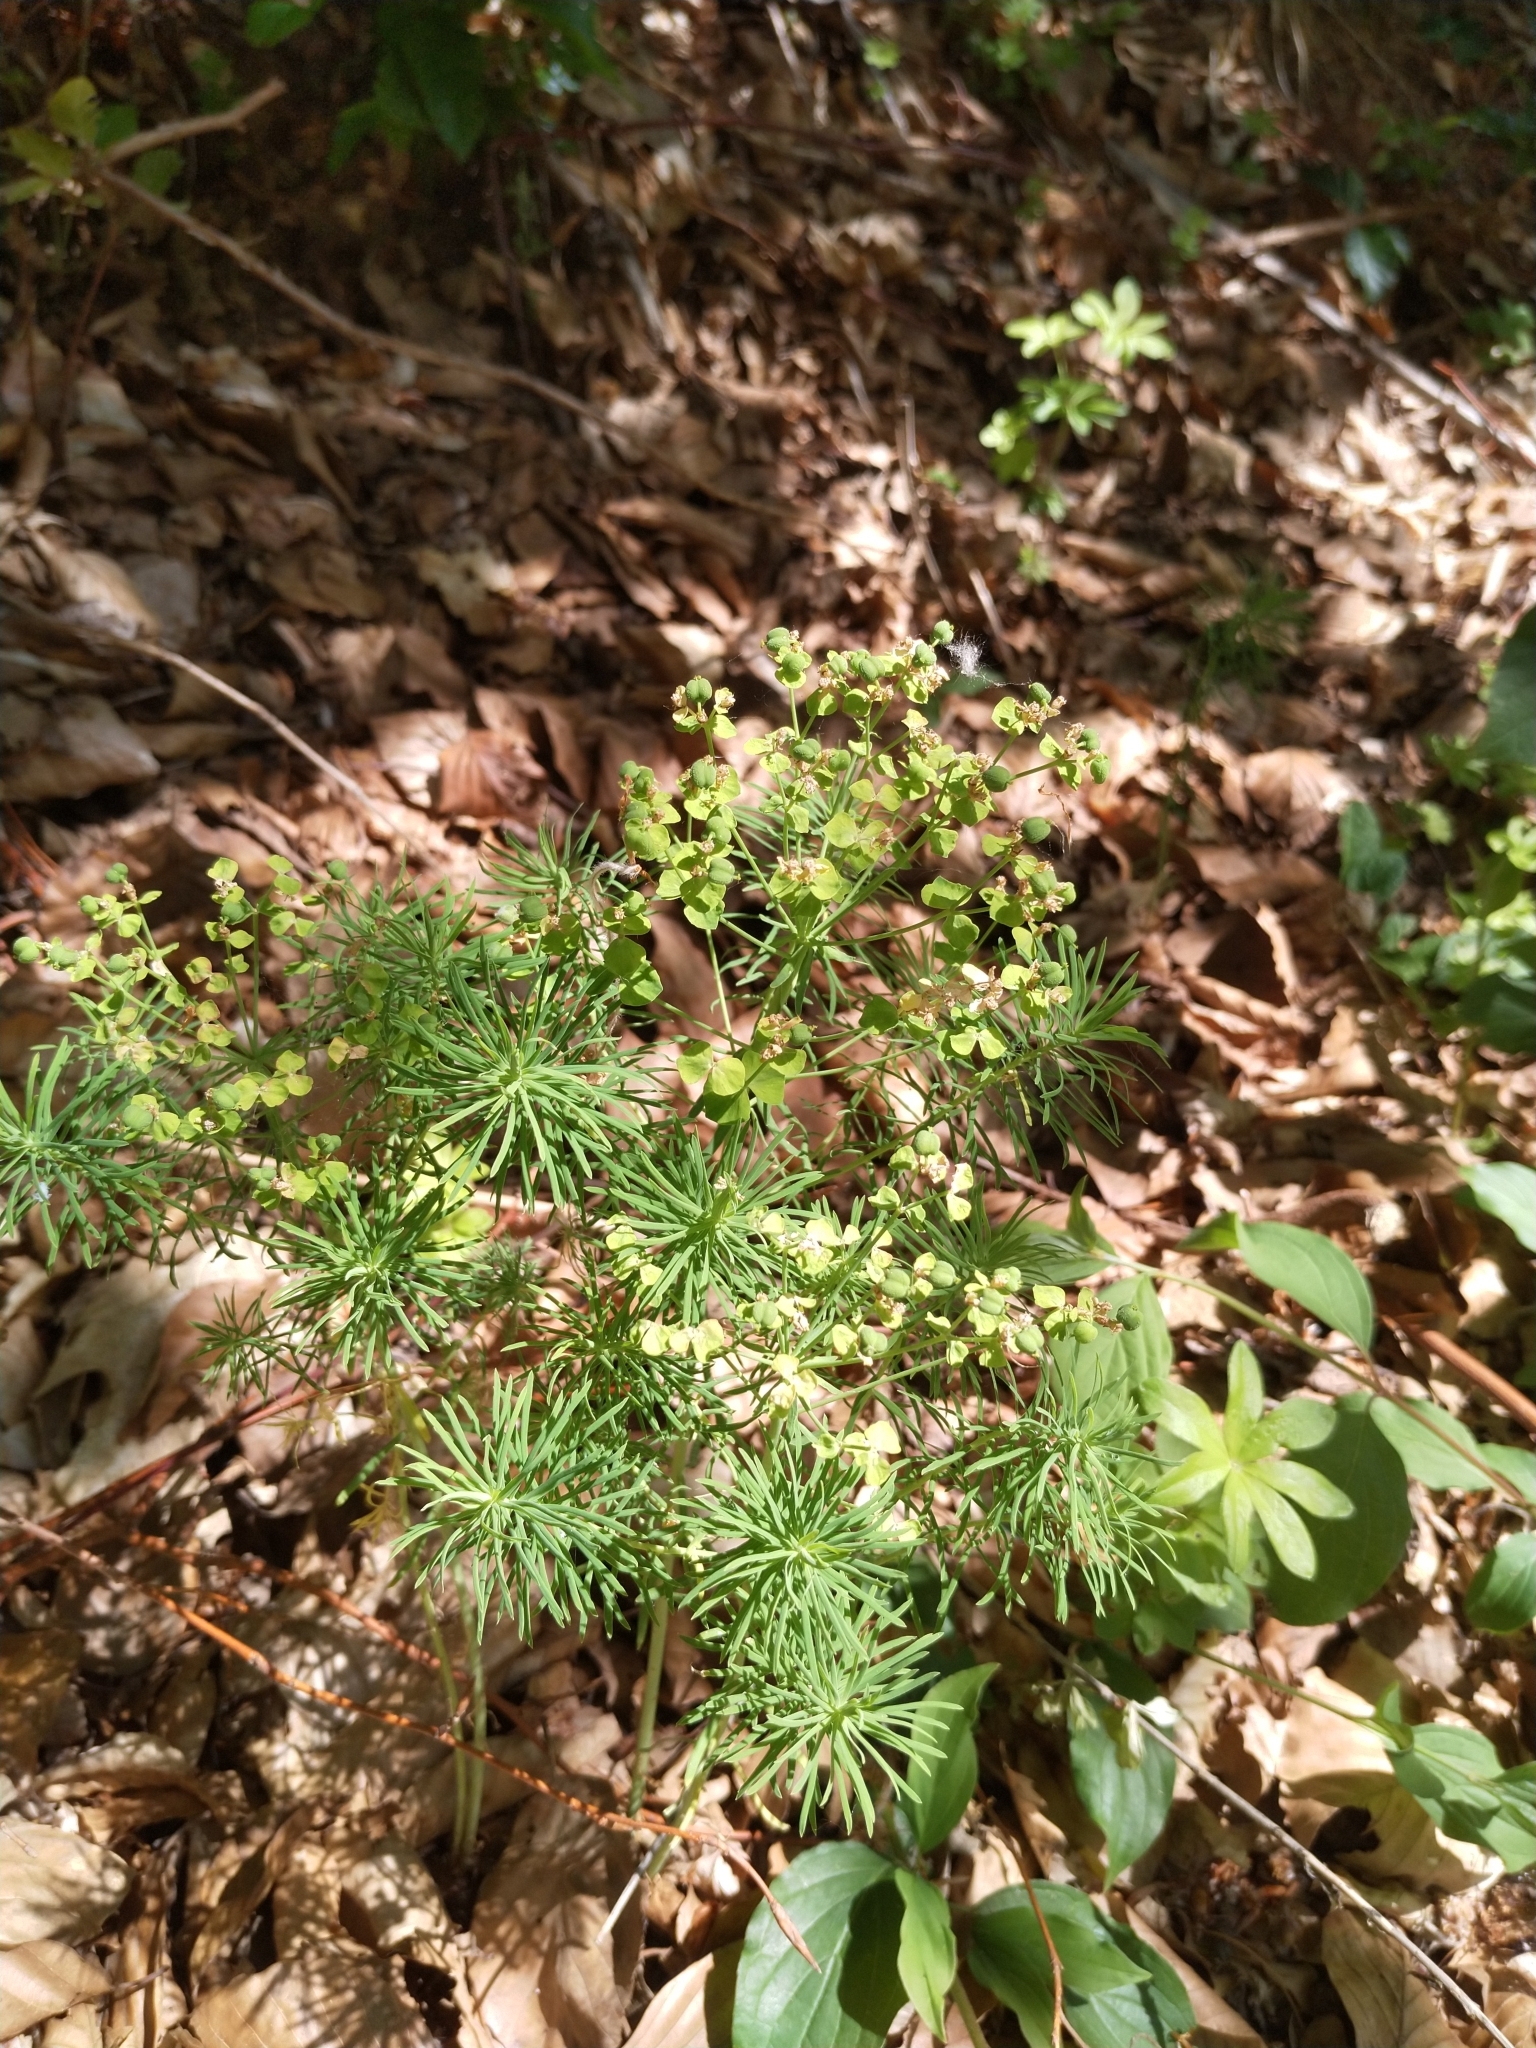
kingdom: Plantae
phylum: Tracheophyta
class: Magnoliopsida
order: Malpighiales
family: Euphorbiaceae
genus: Euphorbia
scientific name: Euphorbia cyparissias
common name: Cypress spurge
